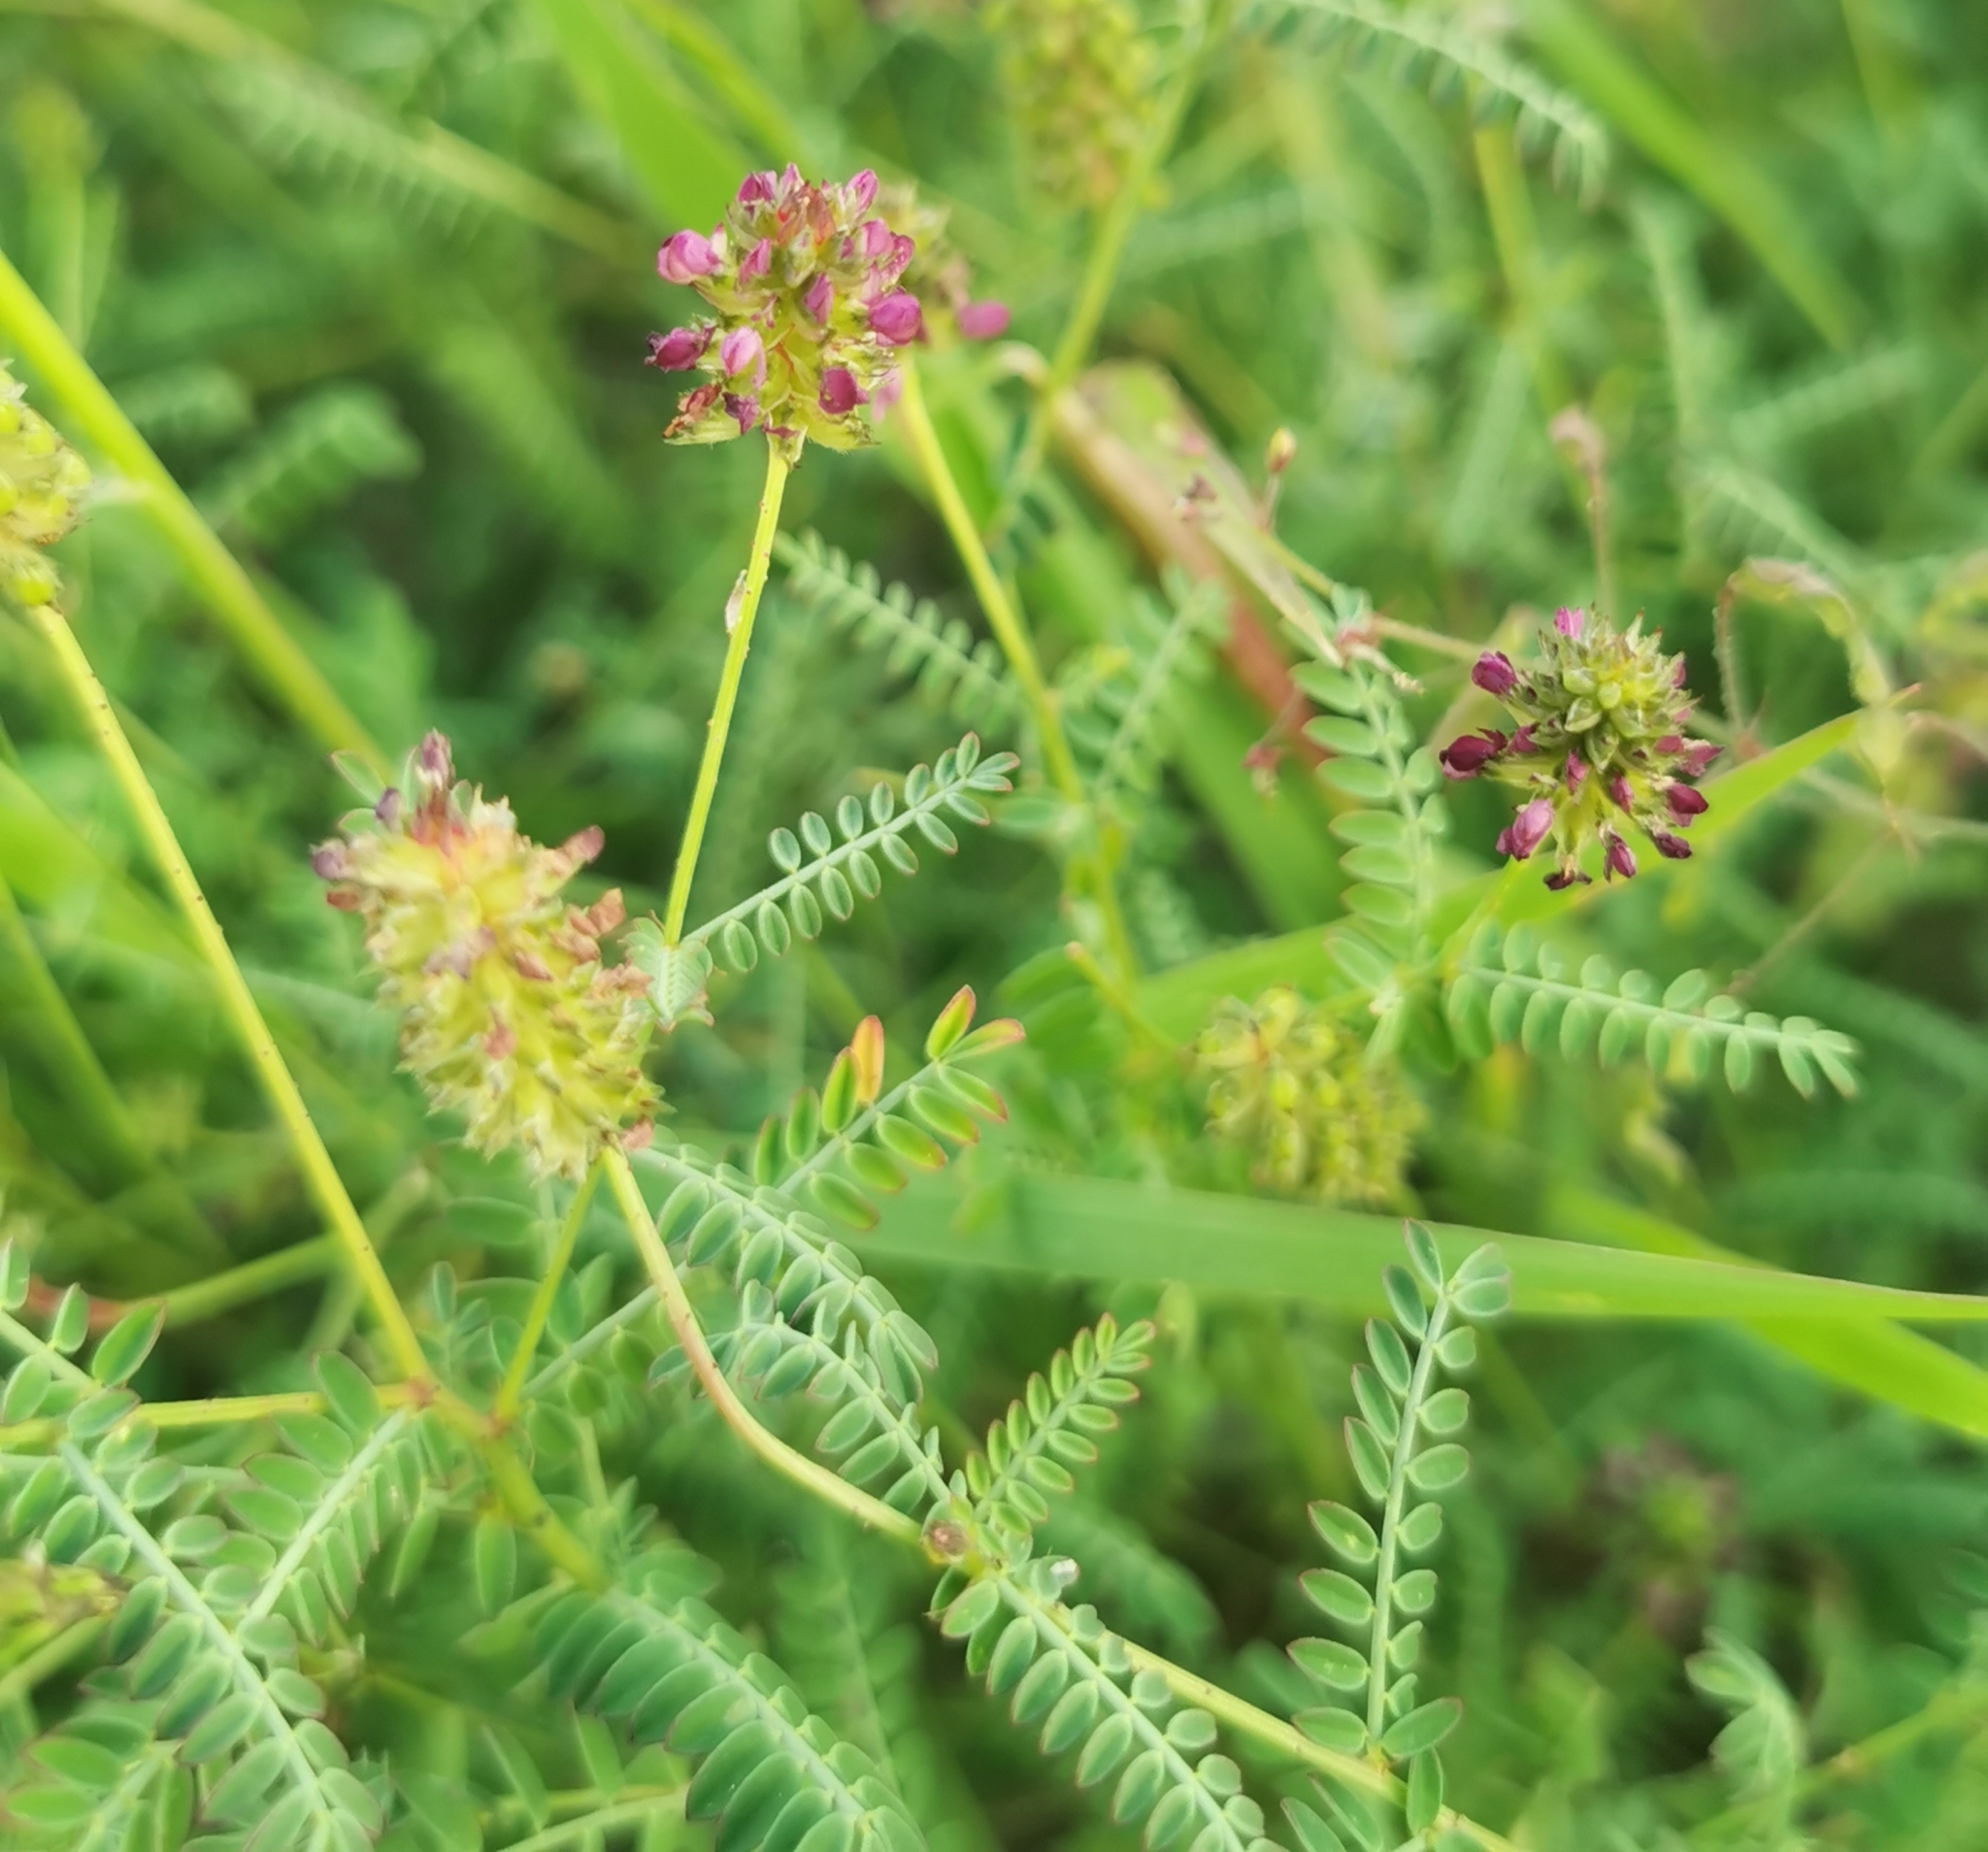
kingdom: Plantae
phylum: Tracheophyta
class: Magnoliopsida
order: Fabales
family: Fabaceae
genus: Dalea
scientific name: Dalea foliolosa
